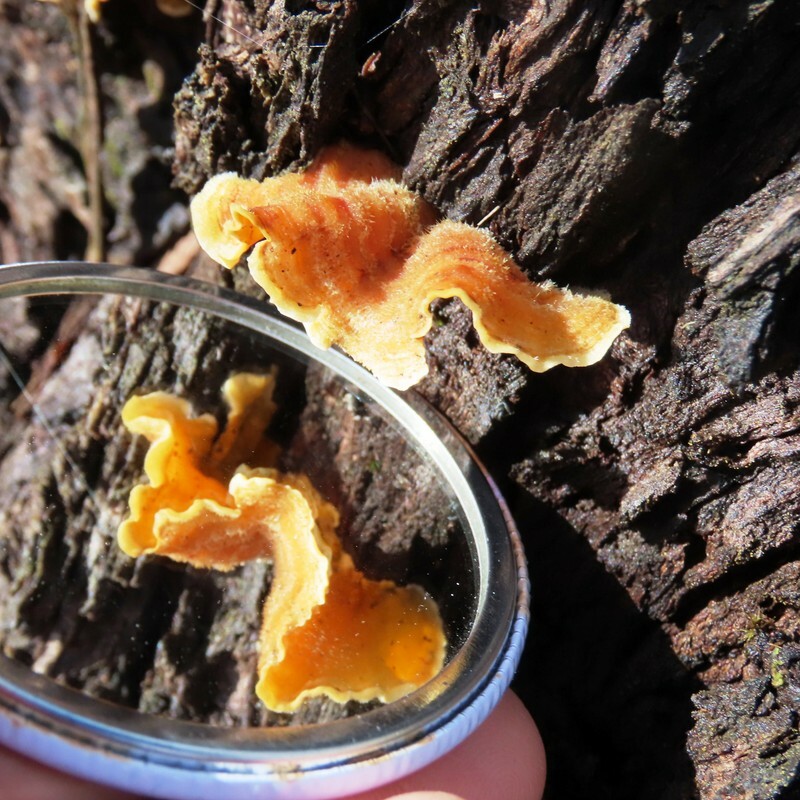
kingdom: Fungi
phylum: Basidiomycota
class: Agaricomycetes
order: Russulales
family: Stereaceae
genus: Stereum
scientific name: Stereum hirsutum
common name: Hairy curtain crust
